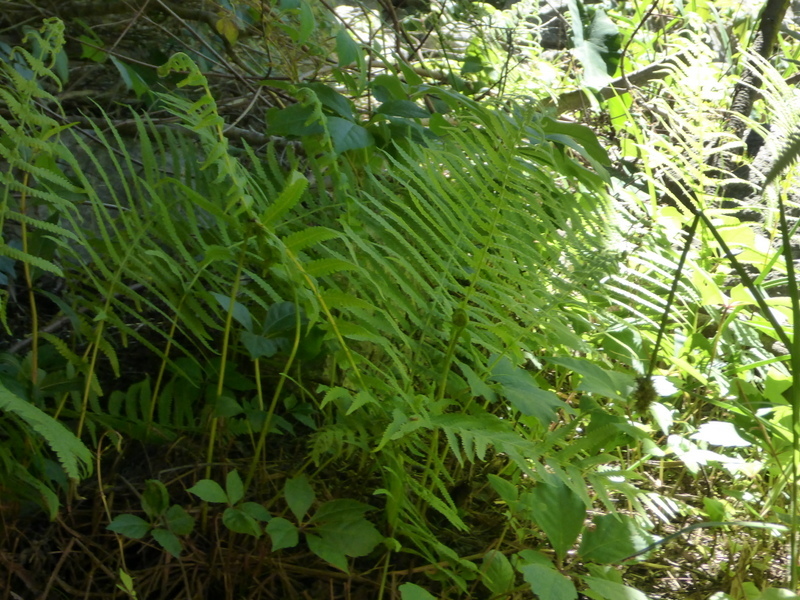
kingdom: Plantae
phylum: Tracheophyta
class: Polypodiopsida
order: Osmundales
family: Osmundaceae
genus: Osmundastrum
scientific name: Osmundastrum cinnamomeum
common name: Cinnamon fern
